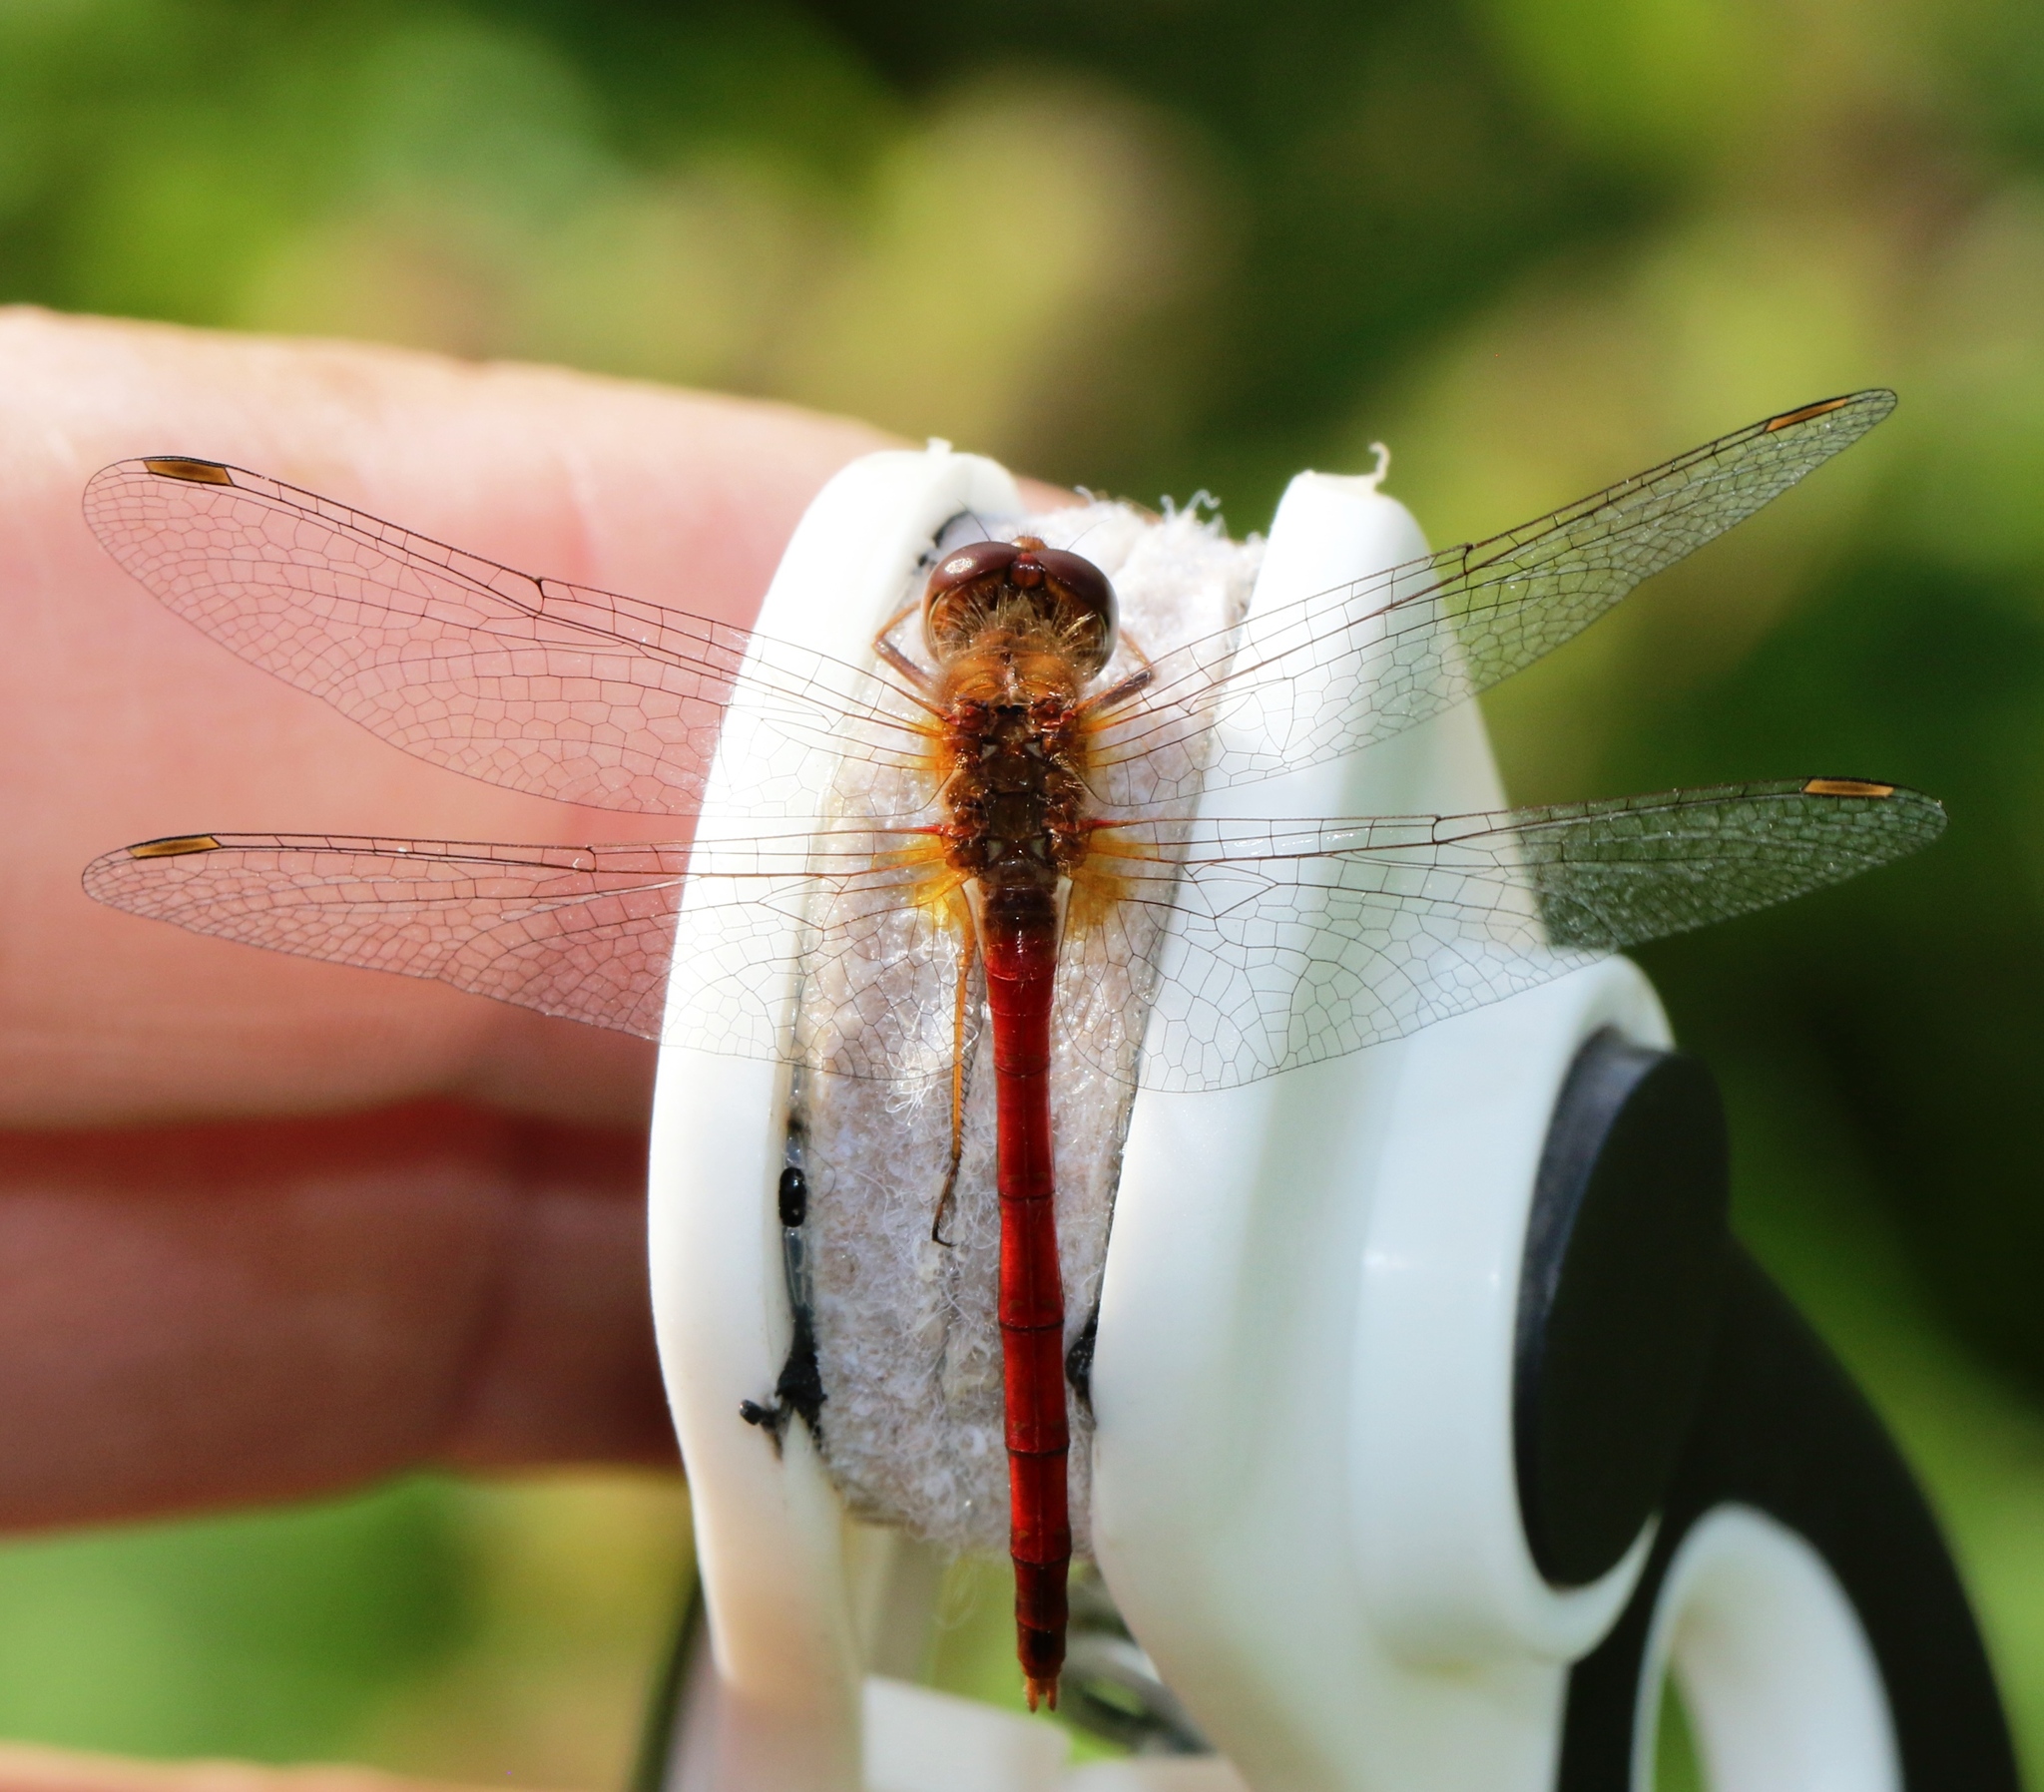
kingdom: Animalia
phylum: Arthropoda
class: Insecta
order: Odonata
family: Libellulidae
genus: Sympetrum
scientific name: Sympetrum vicinum
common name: Autumn meadowhawk
